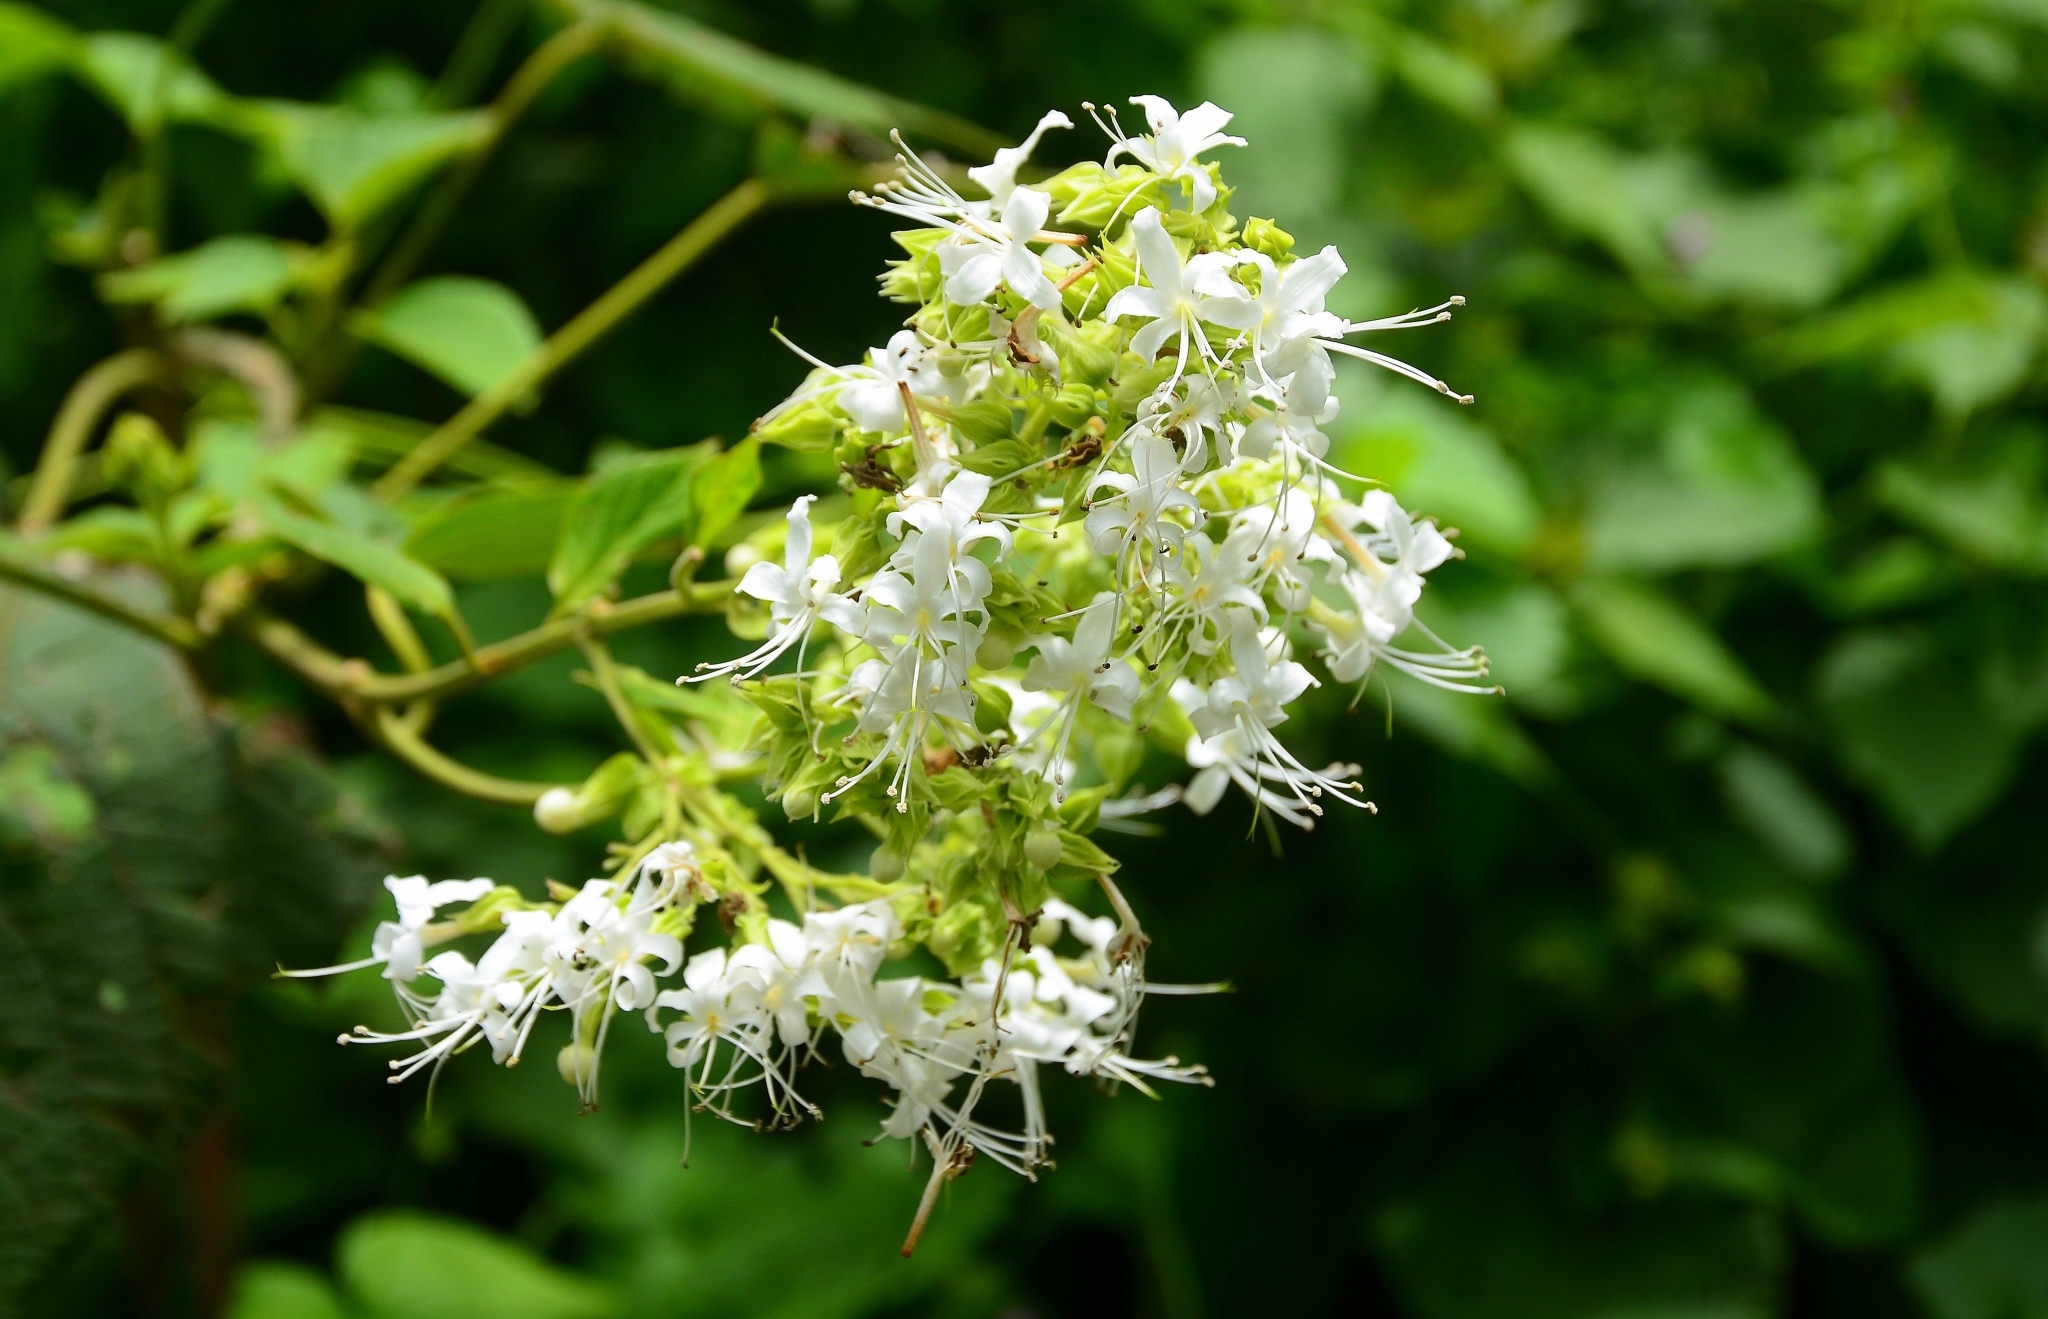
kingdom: Plantae
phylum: Tracheophyta
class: Magnoliopsida
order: Lamiales
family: Lamiaceae
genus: Clerodendrum
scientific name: Clerodendrum infortunatum
